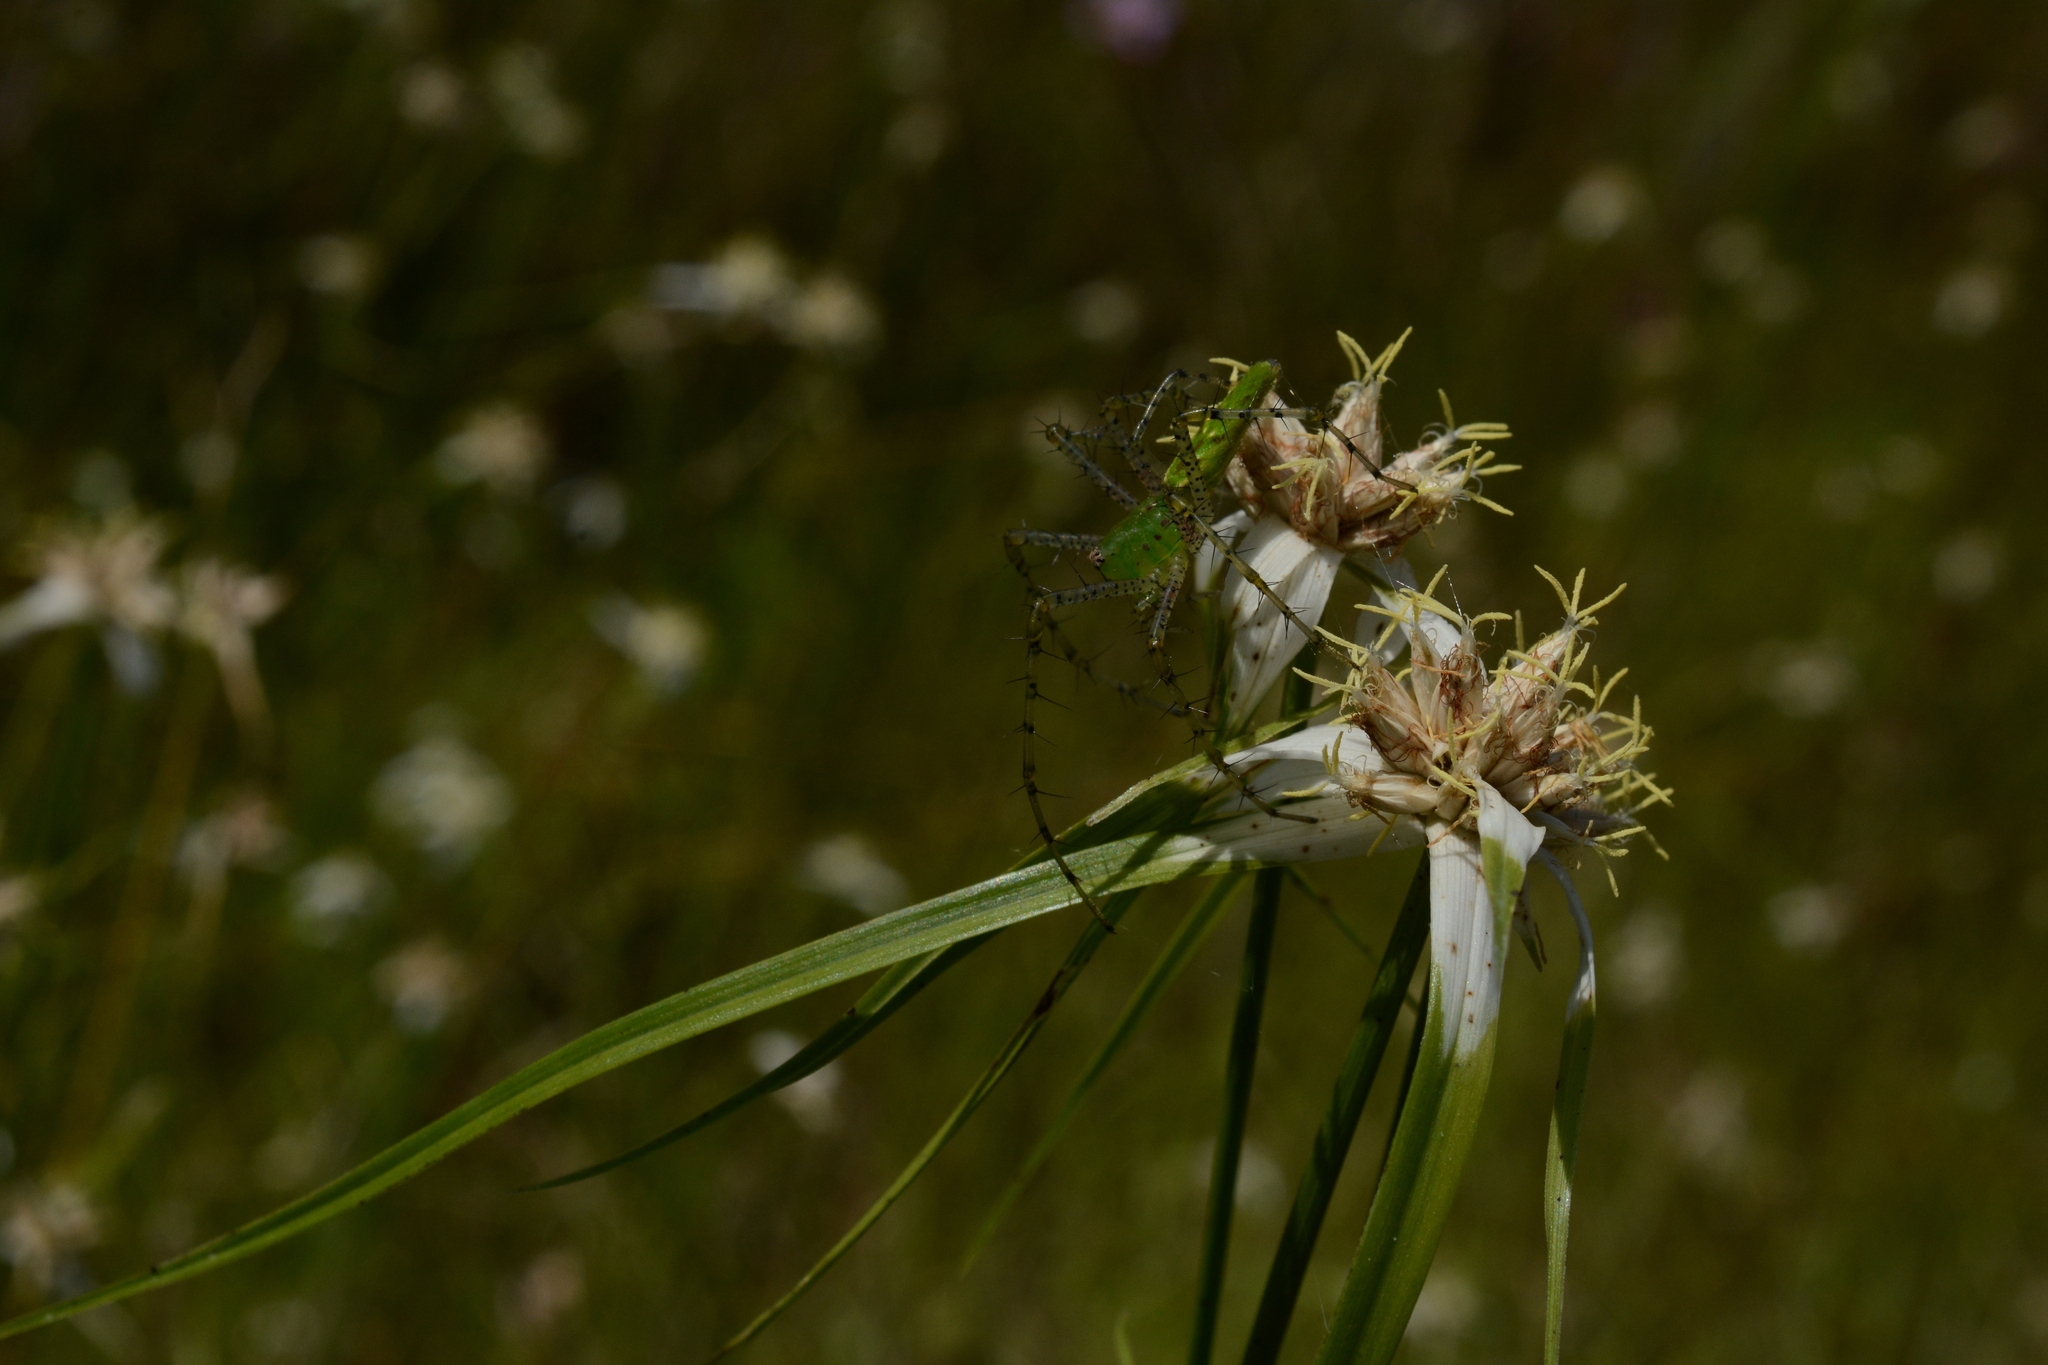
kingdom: Plantae
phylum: Tracheophyta
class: Liliopsida
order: Poales
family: Cyperaceae
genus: Rhynchospora
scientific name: Rhynchospora colorata
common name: Star sedge
